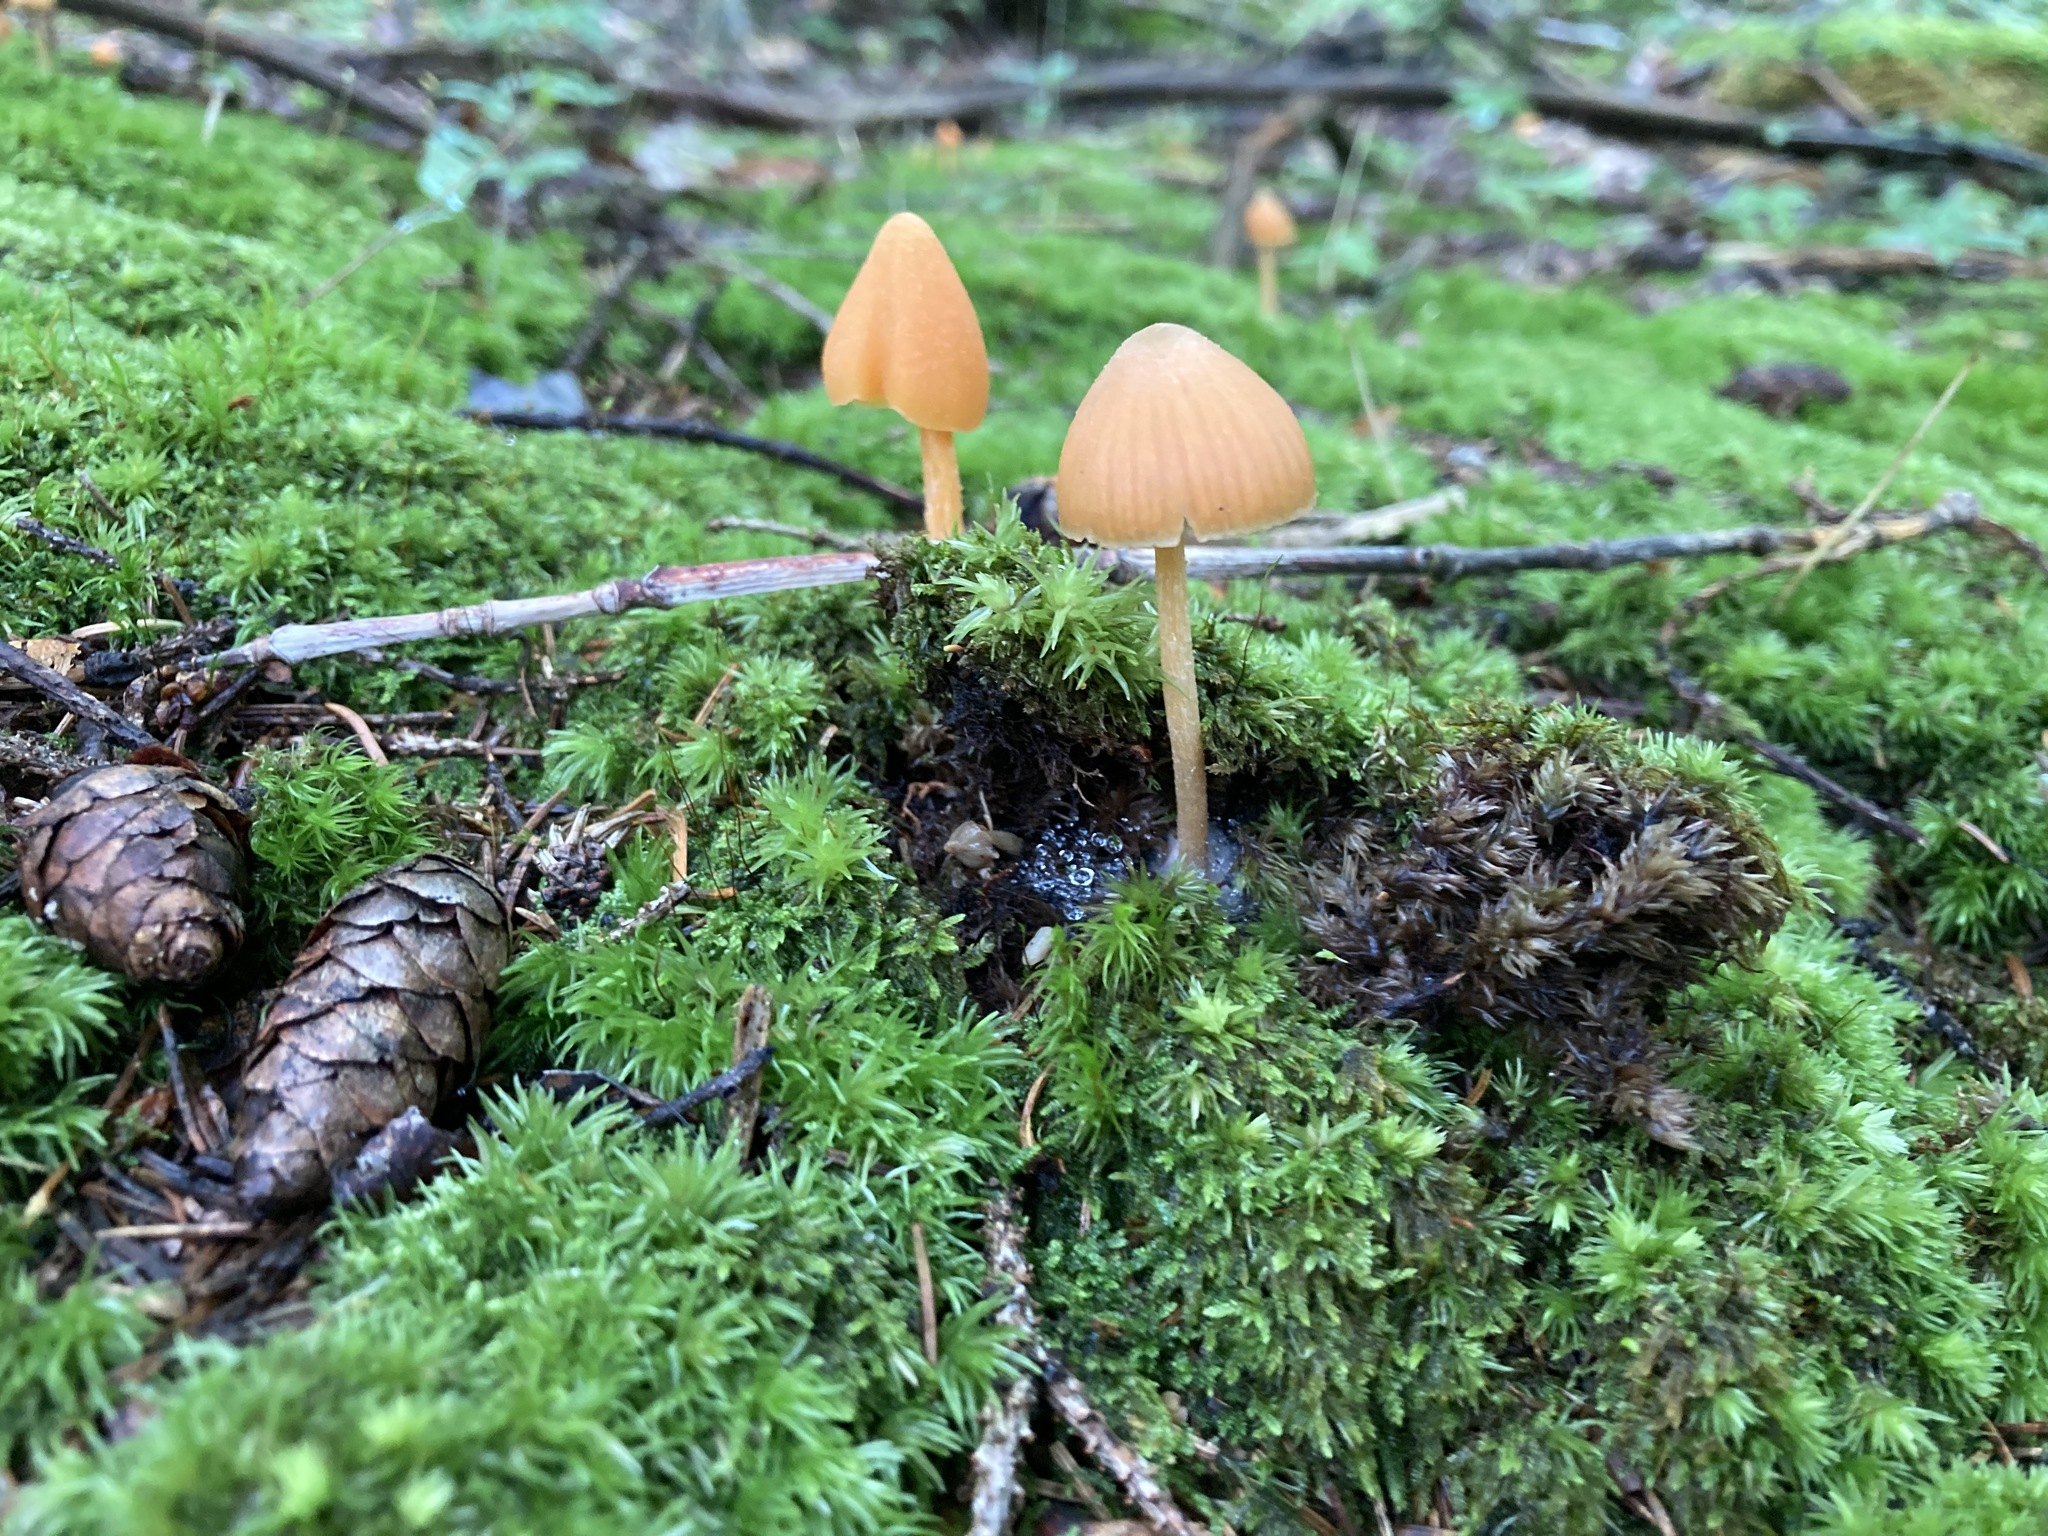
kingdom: Fungi
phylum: Basidiomycota
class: Agaricomycetes
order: Agaricales
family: Entolomataceae
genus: Entoloma
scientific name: Entoloma quadratum
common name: Salmon pinkgill
